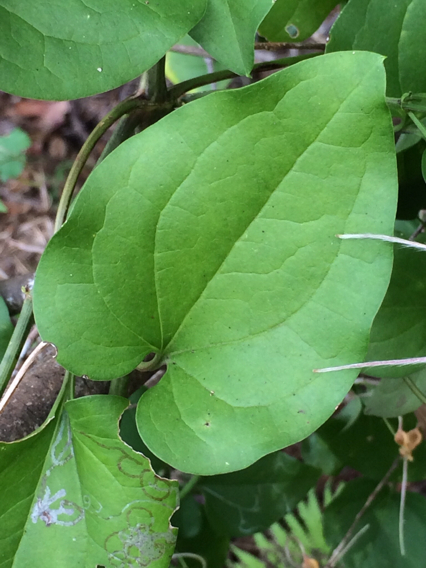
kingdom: Plantae
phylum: Tracheophyta
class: Magnoliopsida
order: Ranunculales
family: Ranunculaceae
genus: Clematis
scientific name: Clematis terniflora
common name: Sweet autumn clematis
